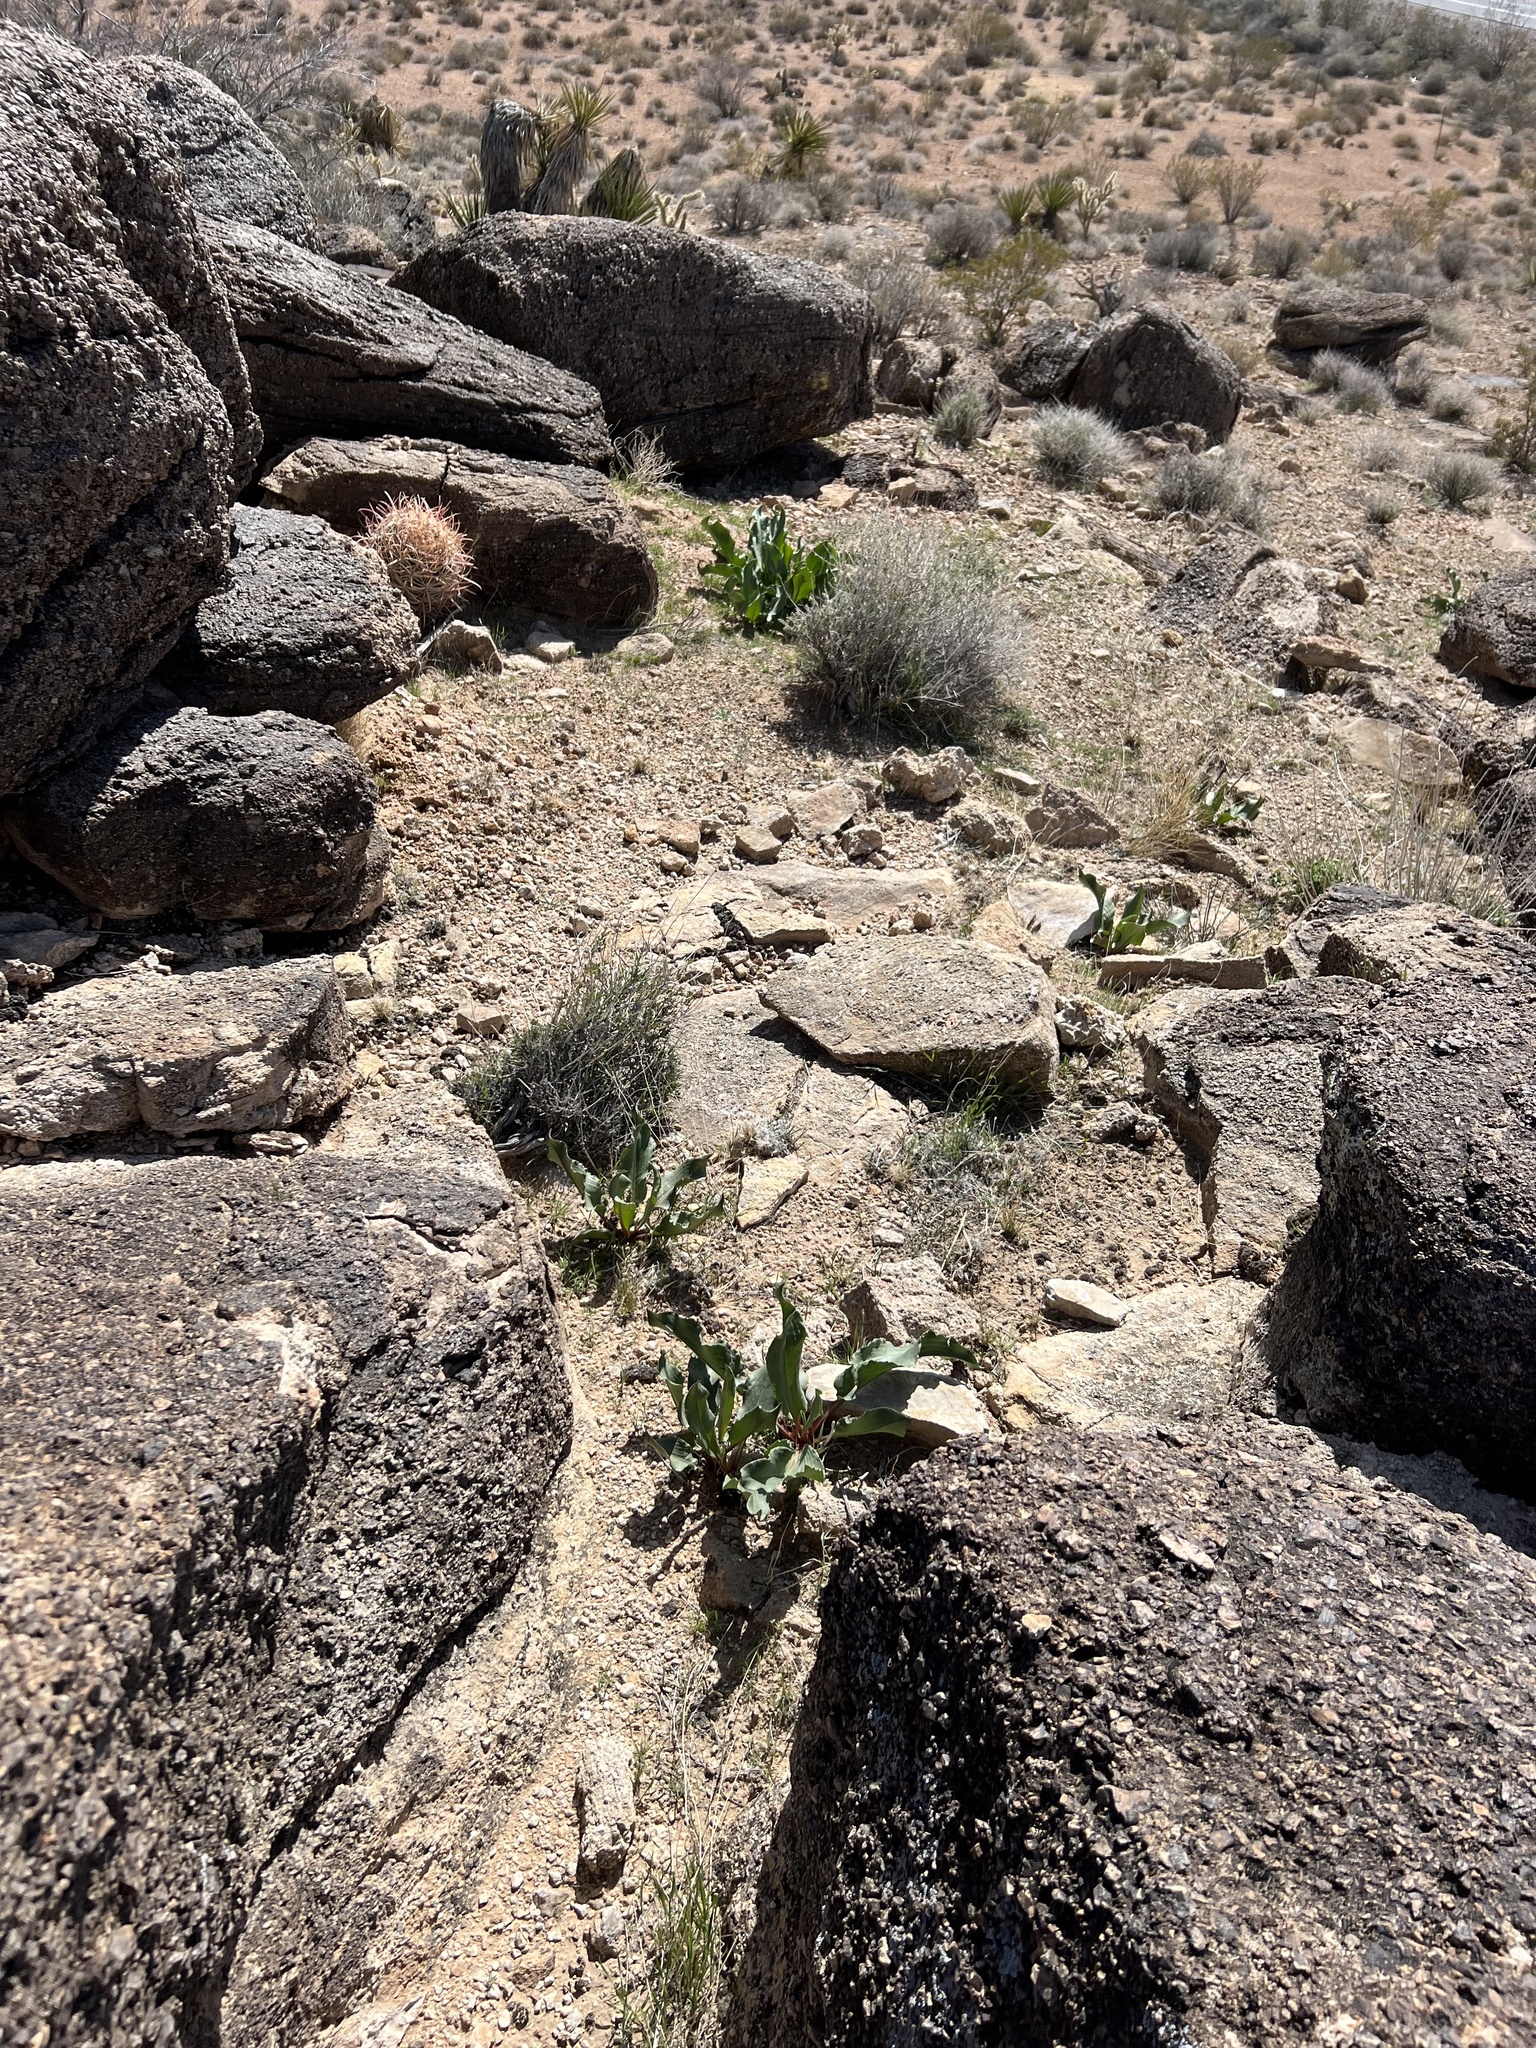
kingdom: Plantae
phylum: Tracheophyta
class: Magnoliopsida
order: Caryophyllales
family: Polygonaceae
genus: Rumex
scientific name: Rumex hymenosepalus
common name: Ganagra
